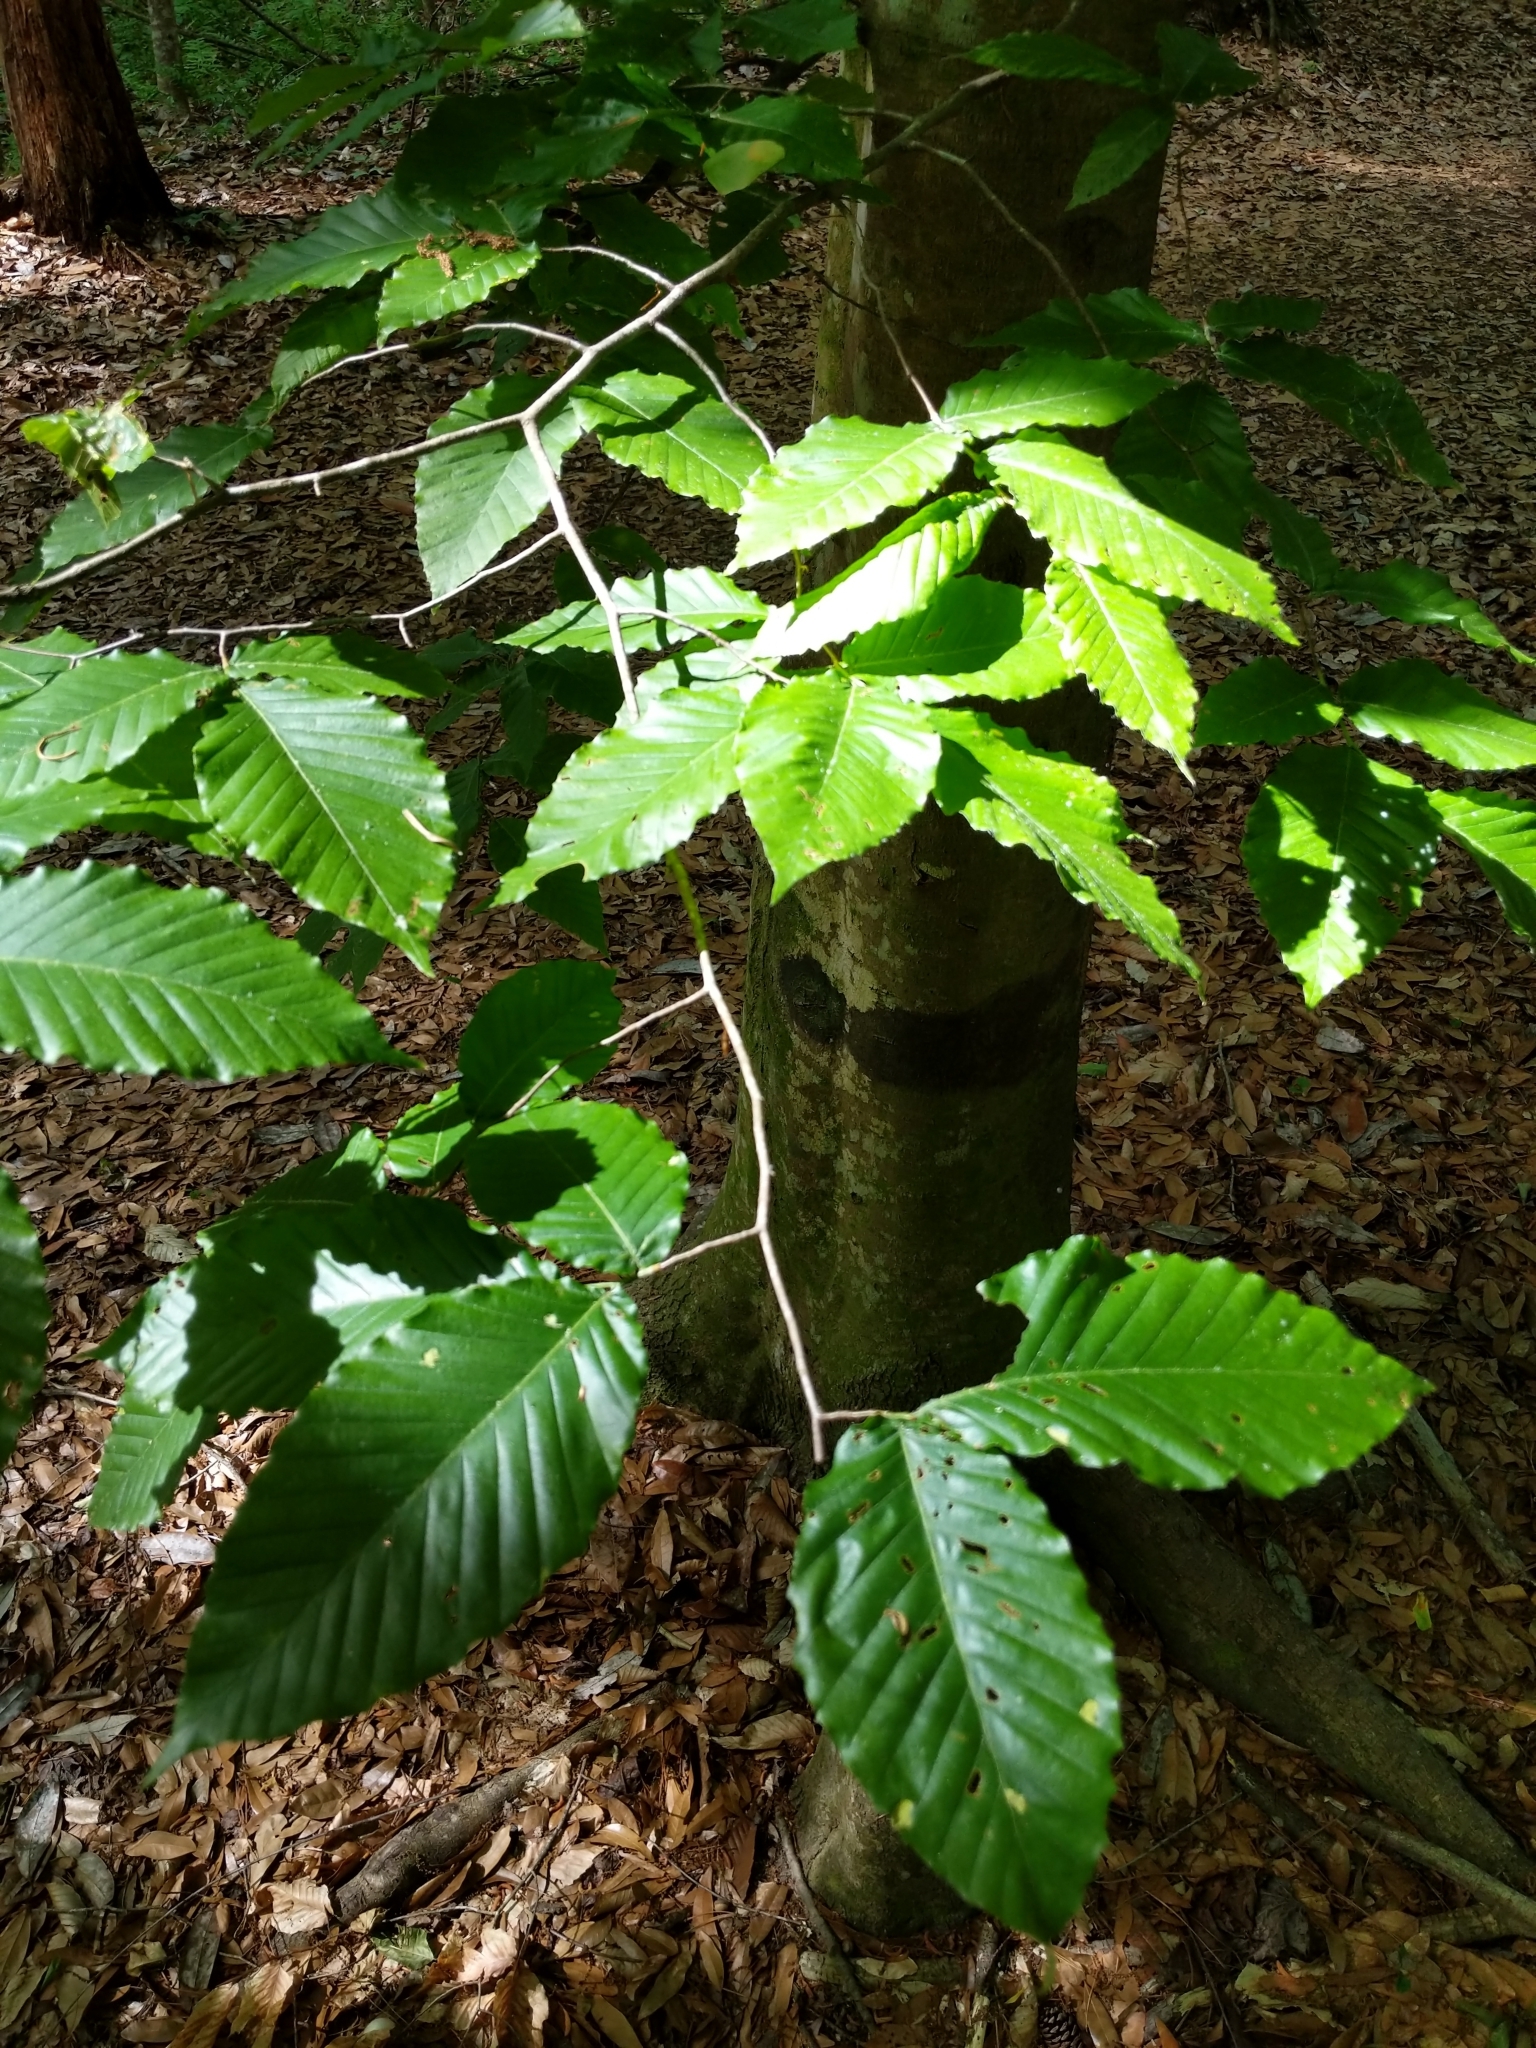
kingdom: Plantae
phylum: Tracheophyta
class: Magnoliopsida
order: Fagales
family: Fagaceae
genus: Fagus
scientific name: Fagus grandifolia
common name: American beech
